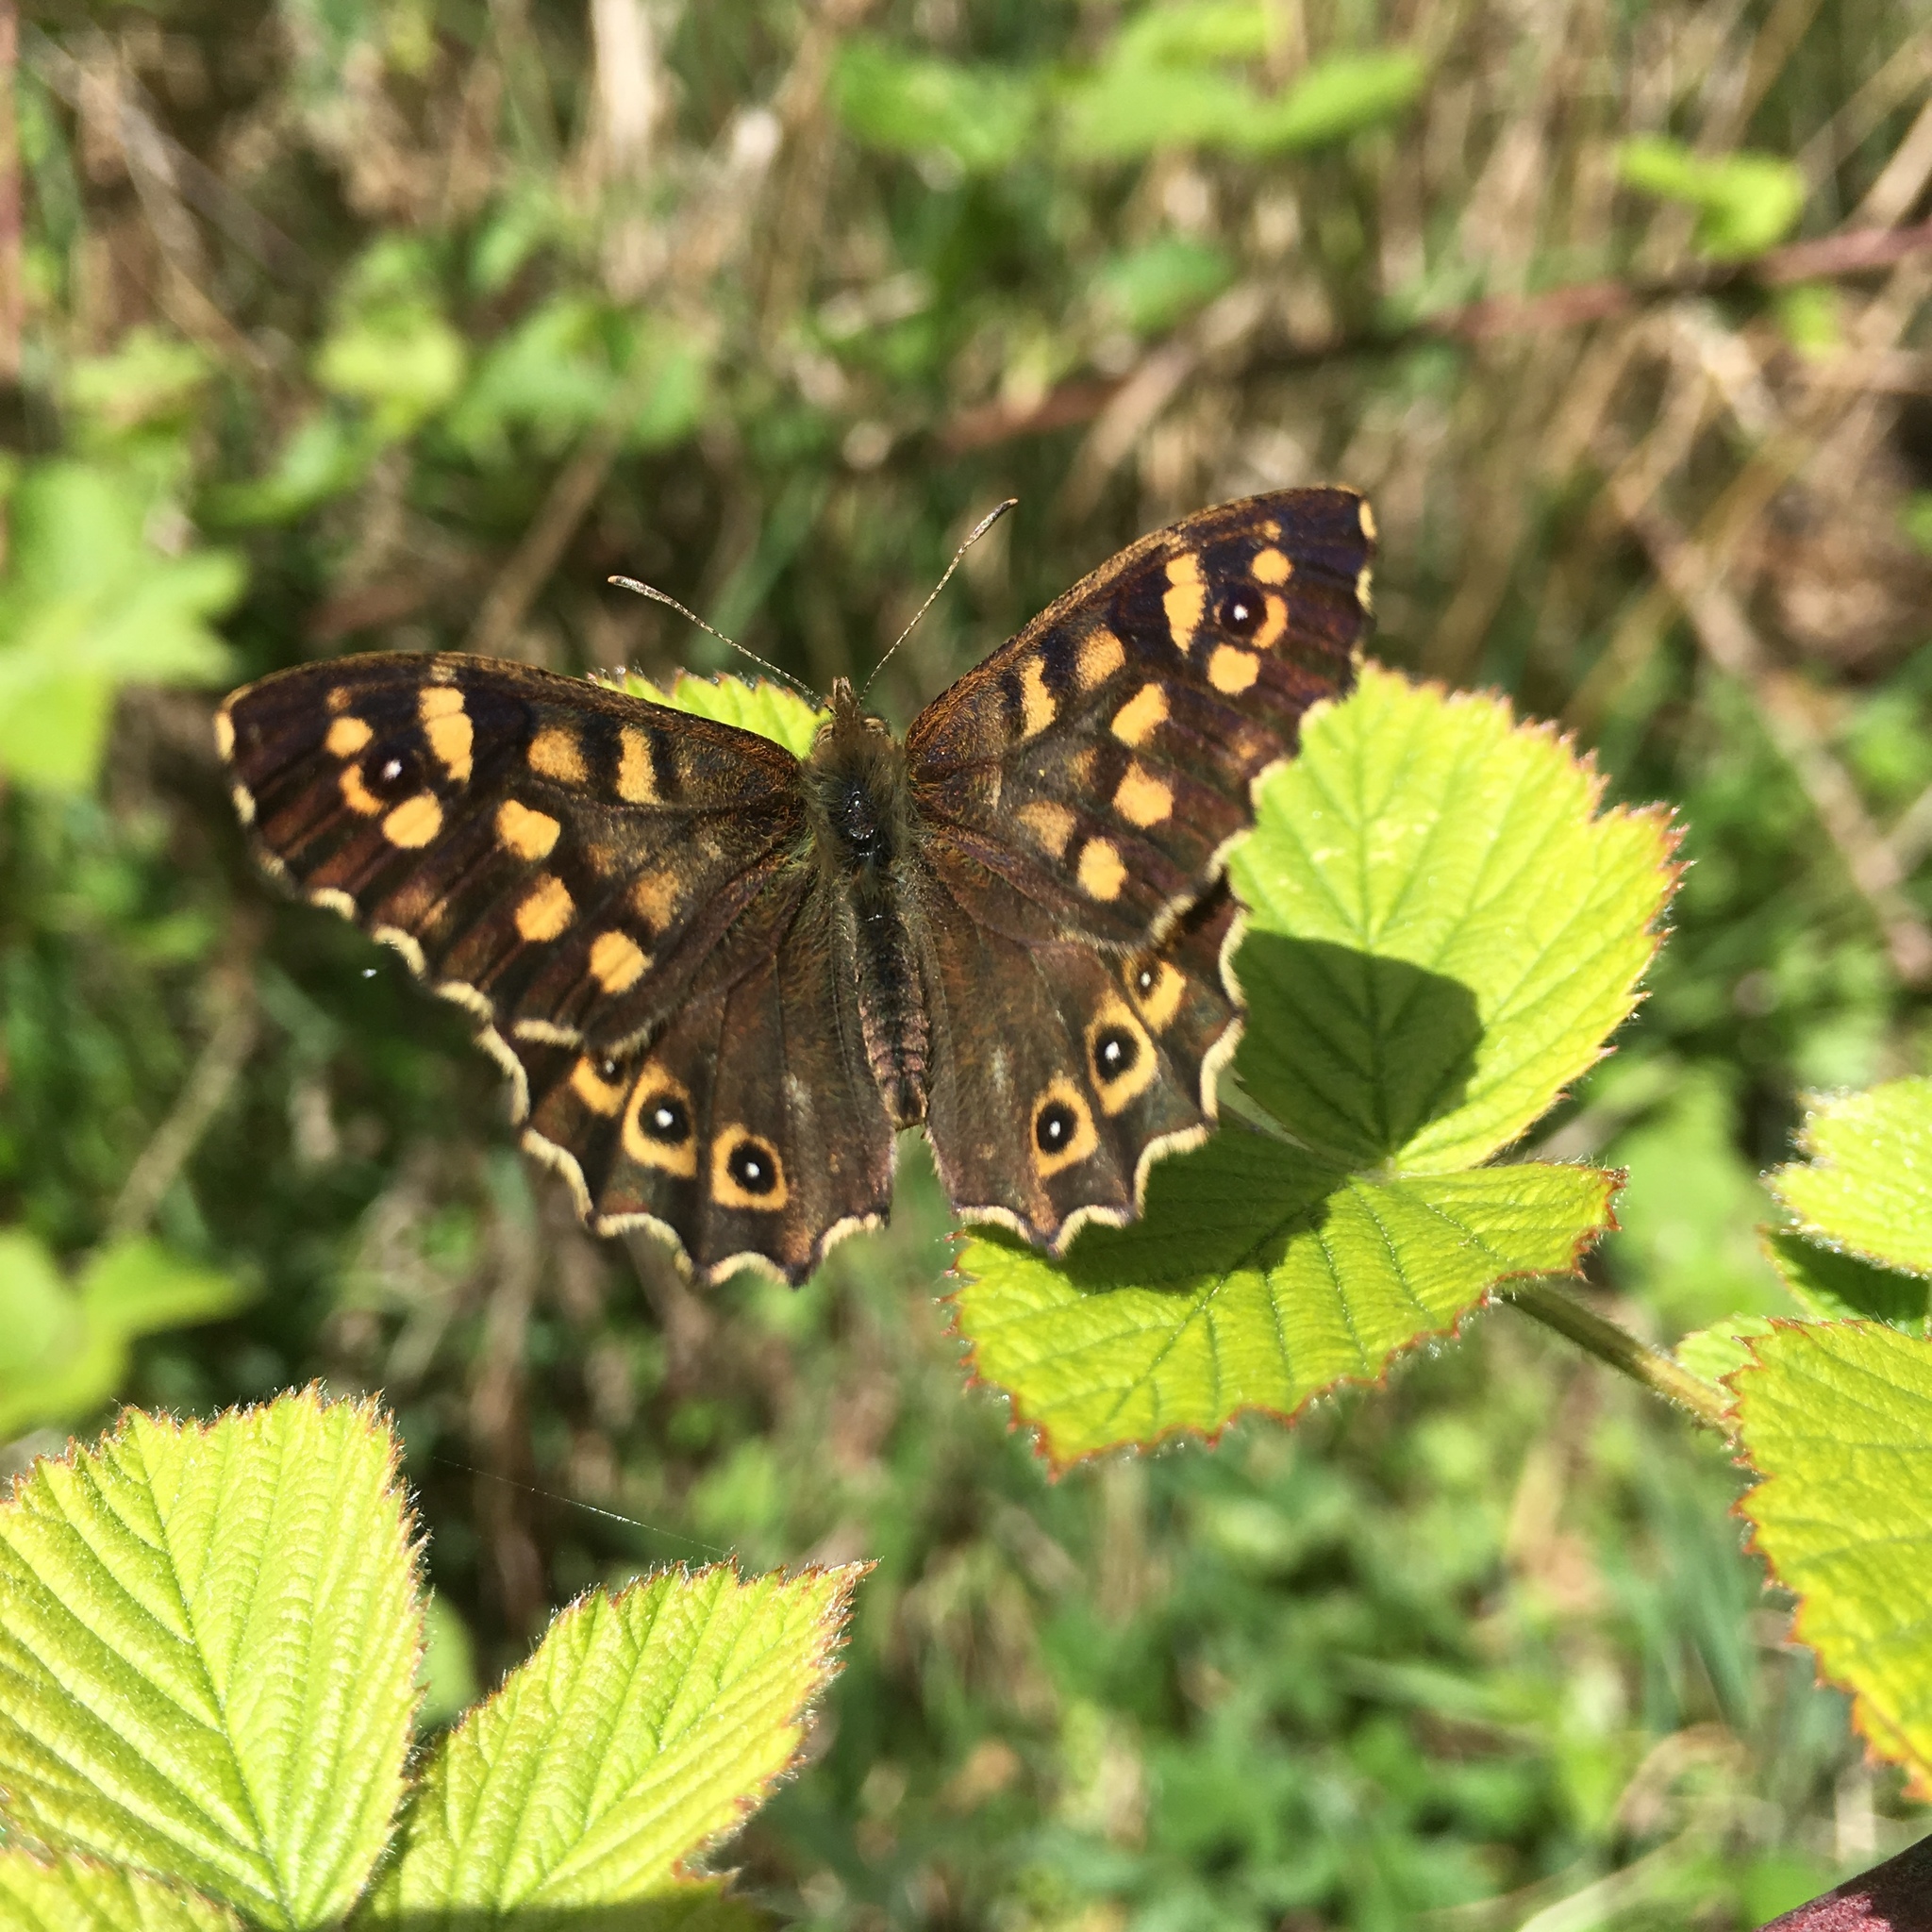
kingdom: Animalia
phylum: Arthropoda
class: Insecta
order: Lepidoptera
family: Nymphalidae
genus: Pararge
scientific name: Pararge aegeria
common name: Speckled wood
